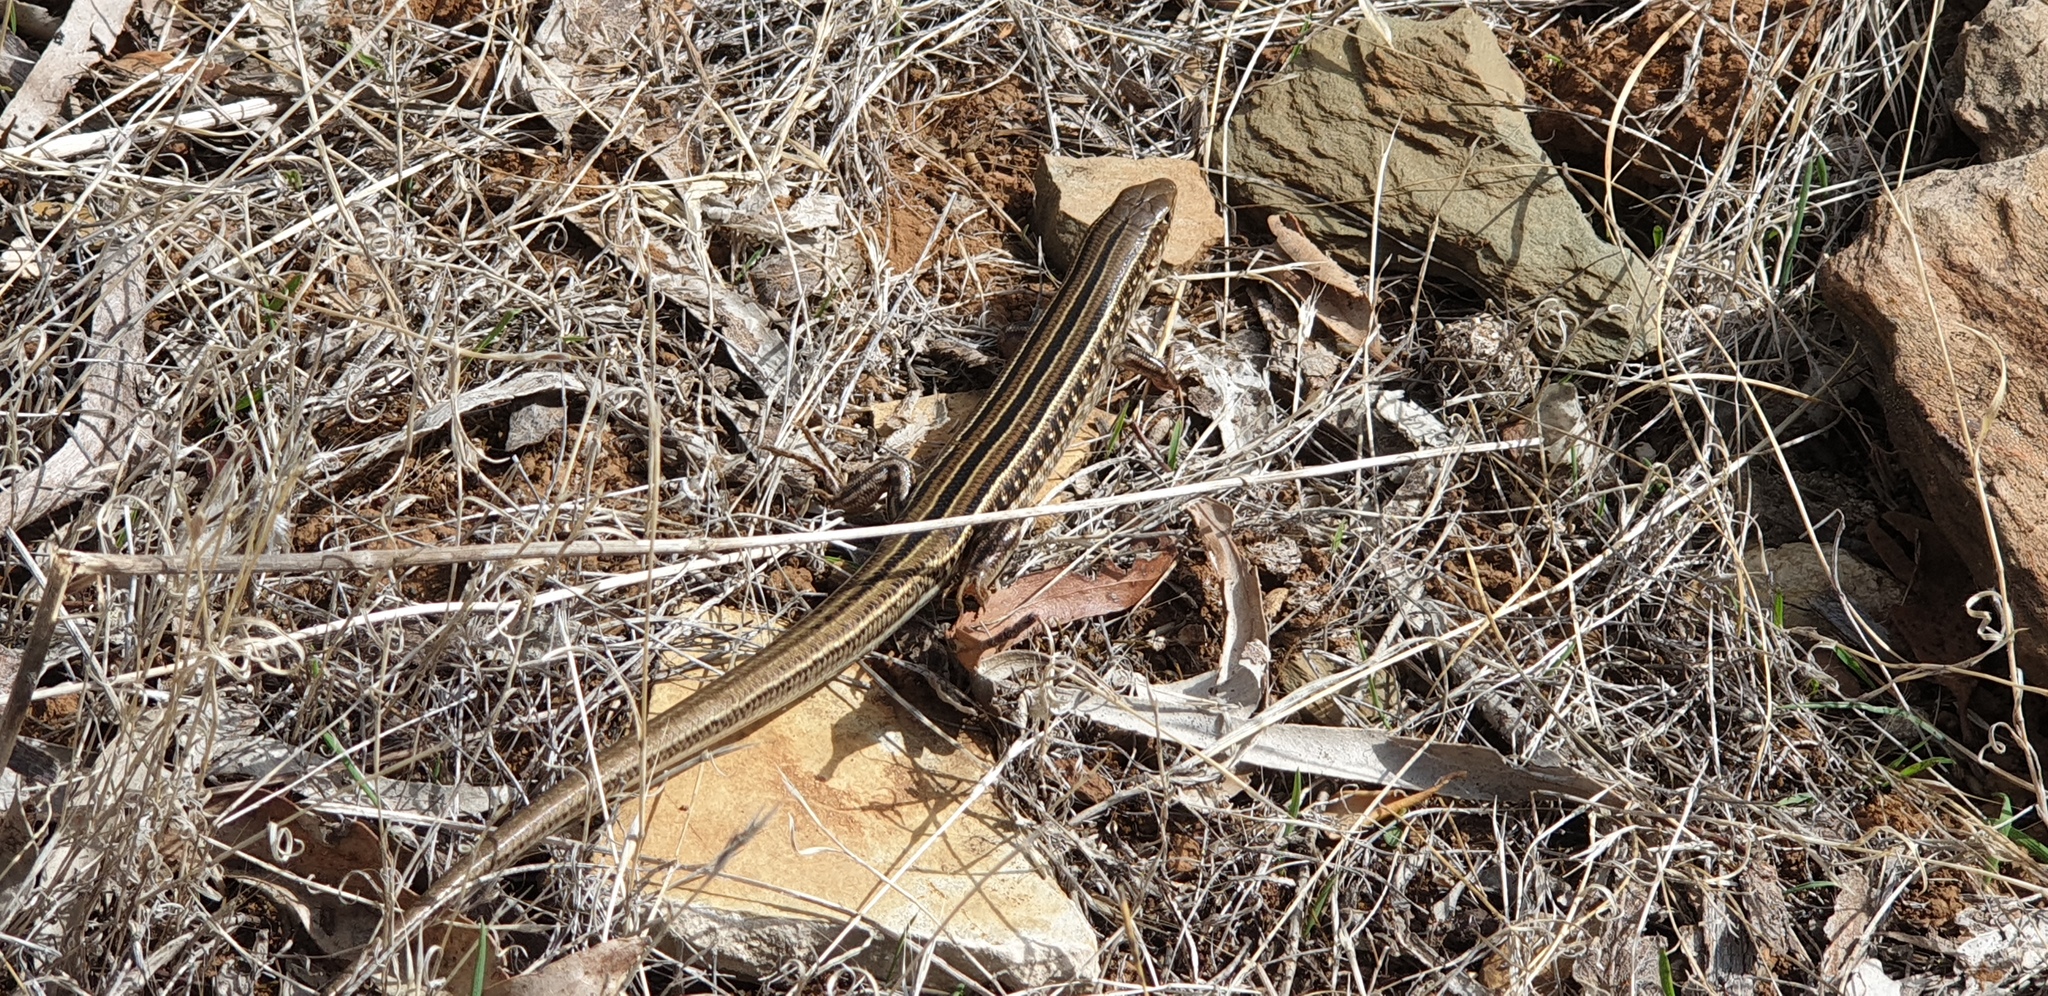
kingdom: Animalia
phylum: Chordata
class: Squamata
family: Scincidae
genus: Ctenotus
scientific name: Ctenotus robustus
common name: Robust ctenotus
